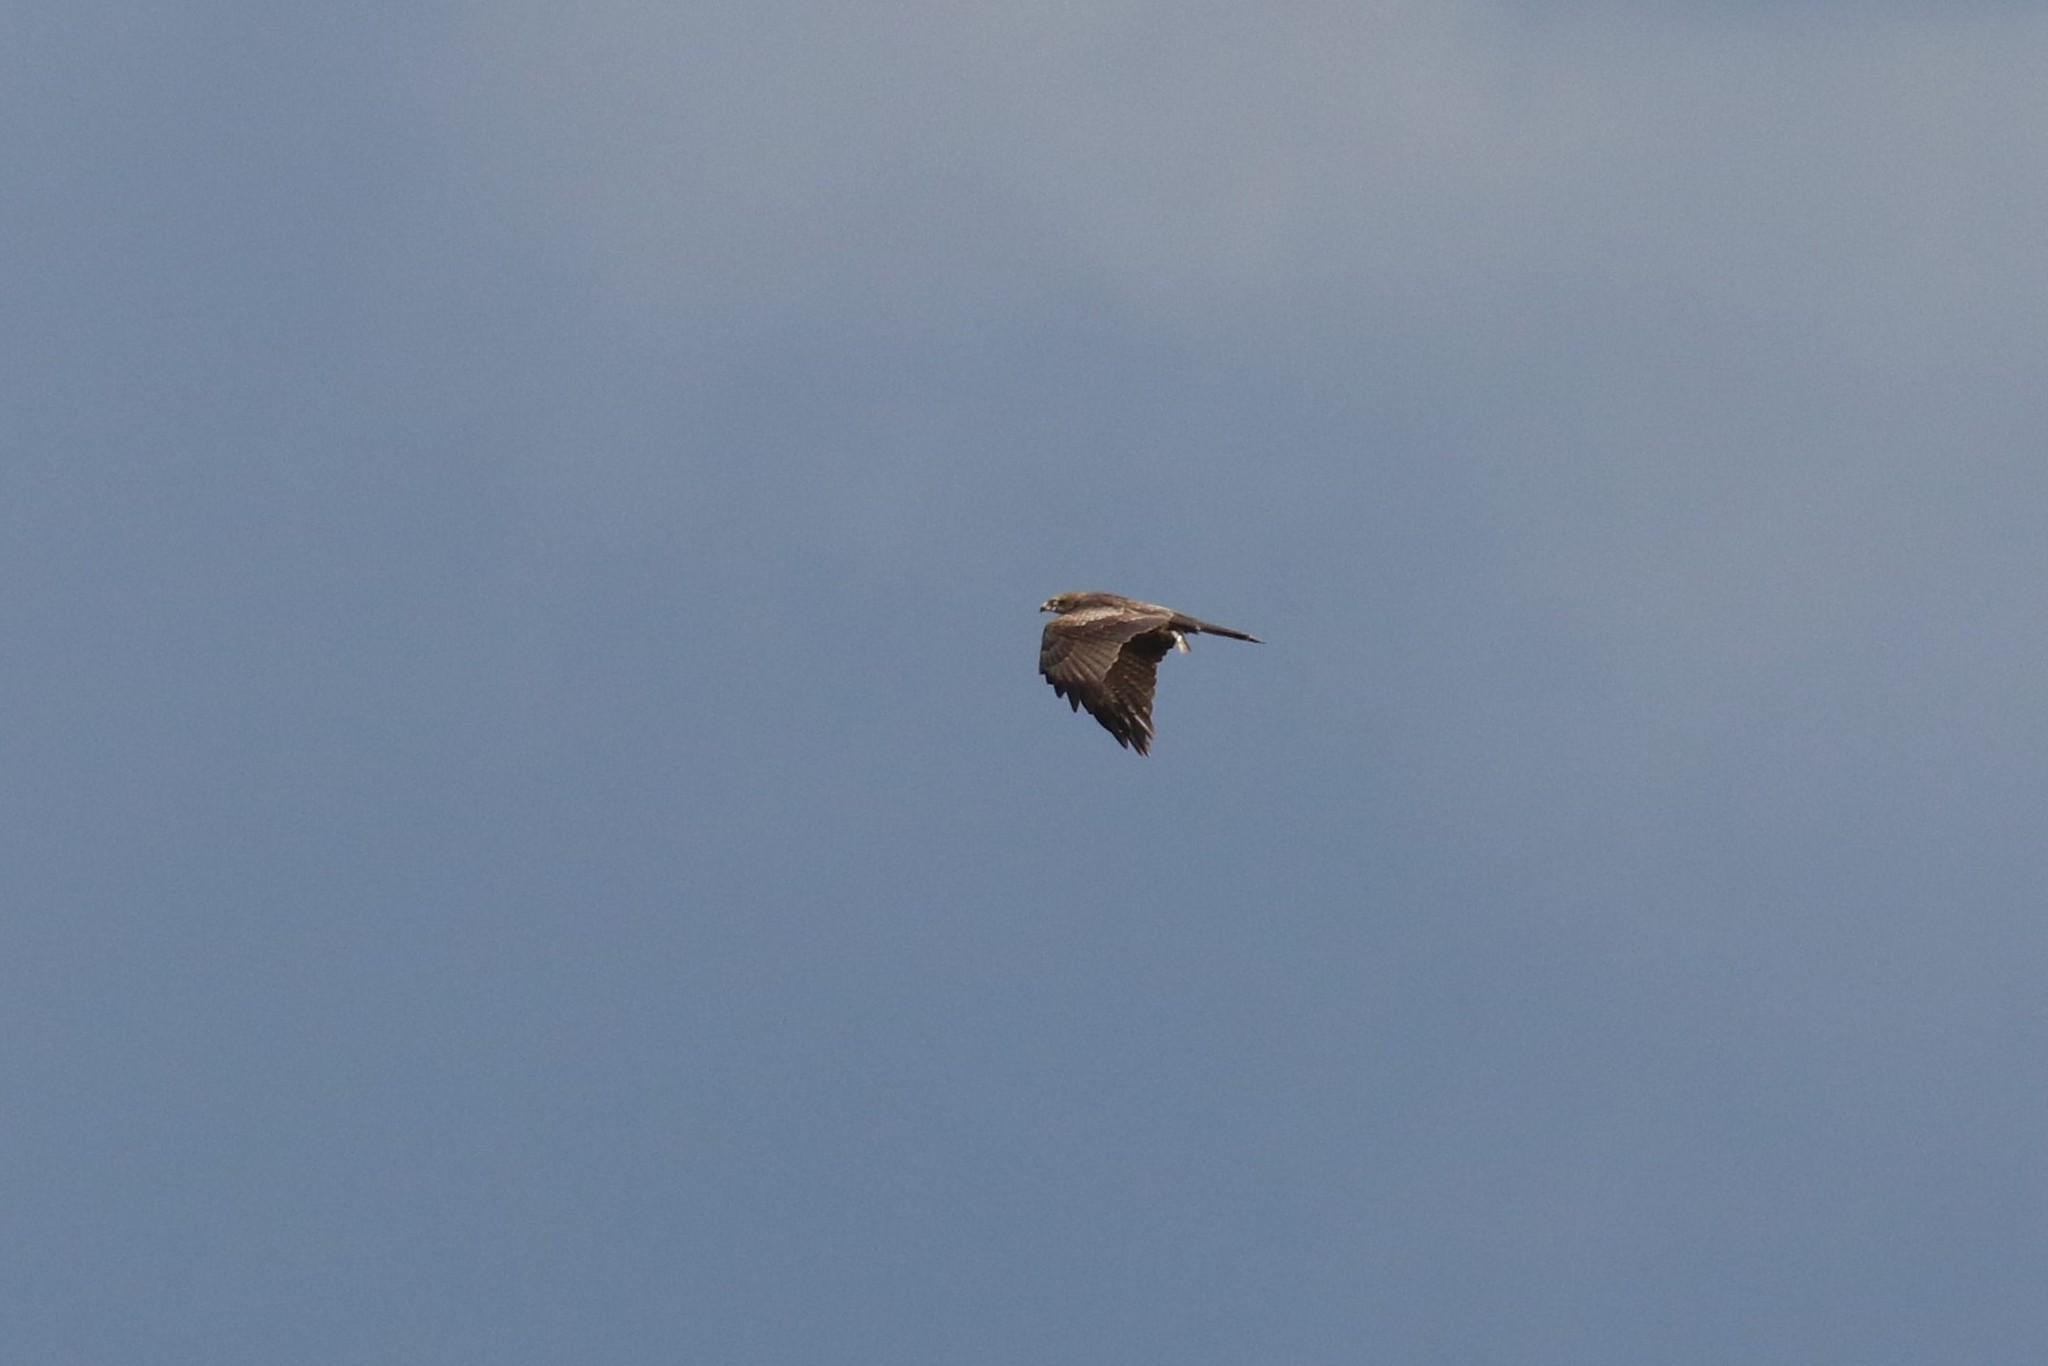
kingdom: Animalia
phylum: Chordata
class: Aves
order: Accipitriformes
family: Accipitridae
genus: Milvus
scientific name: Milvus migrans
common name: Black kite
